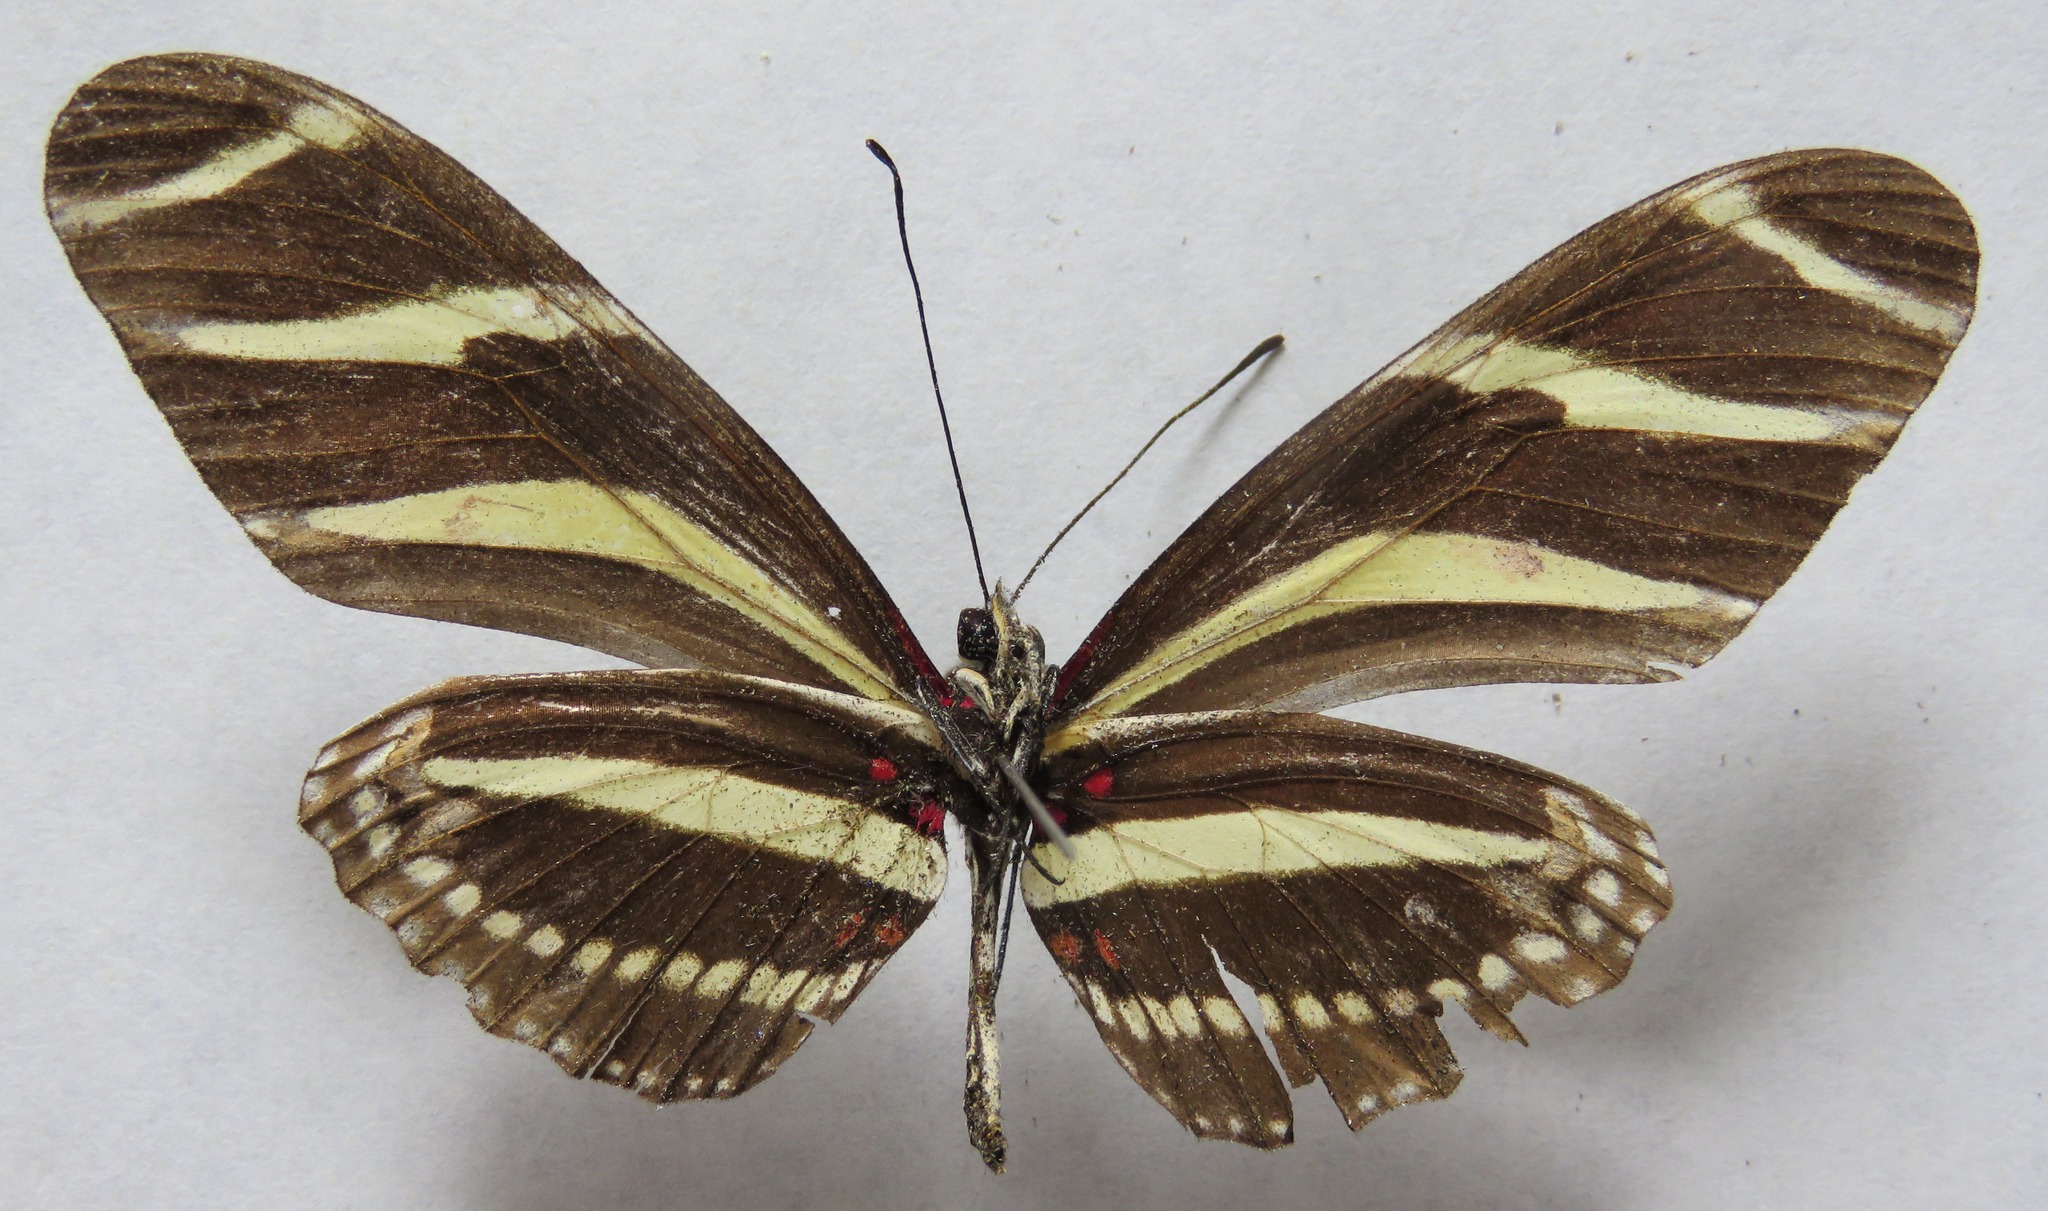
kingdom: Animalia
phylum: Arthropoda
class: Insecta
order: Lepidoptera
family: Nymphalidae
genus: Heliconius
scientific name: Heliconius charithonia
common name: Zebra long wing
